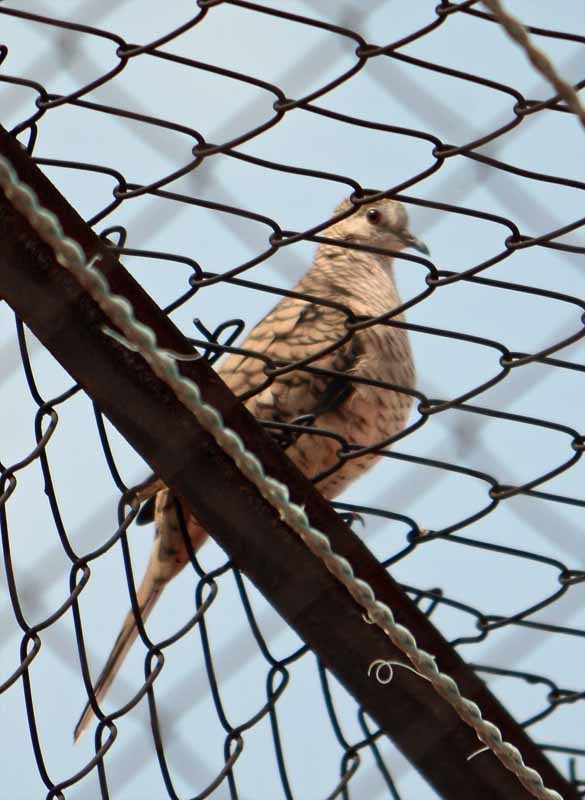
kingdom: Animalia
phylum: Chordata
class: Aves
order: Columbiformes
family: Columbidae
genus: Columbina
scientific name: Columbina inca
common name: Inca dove
